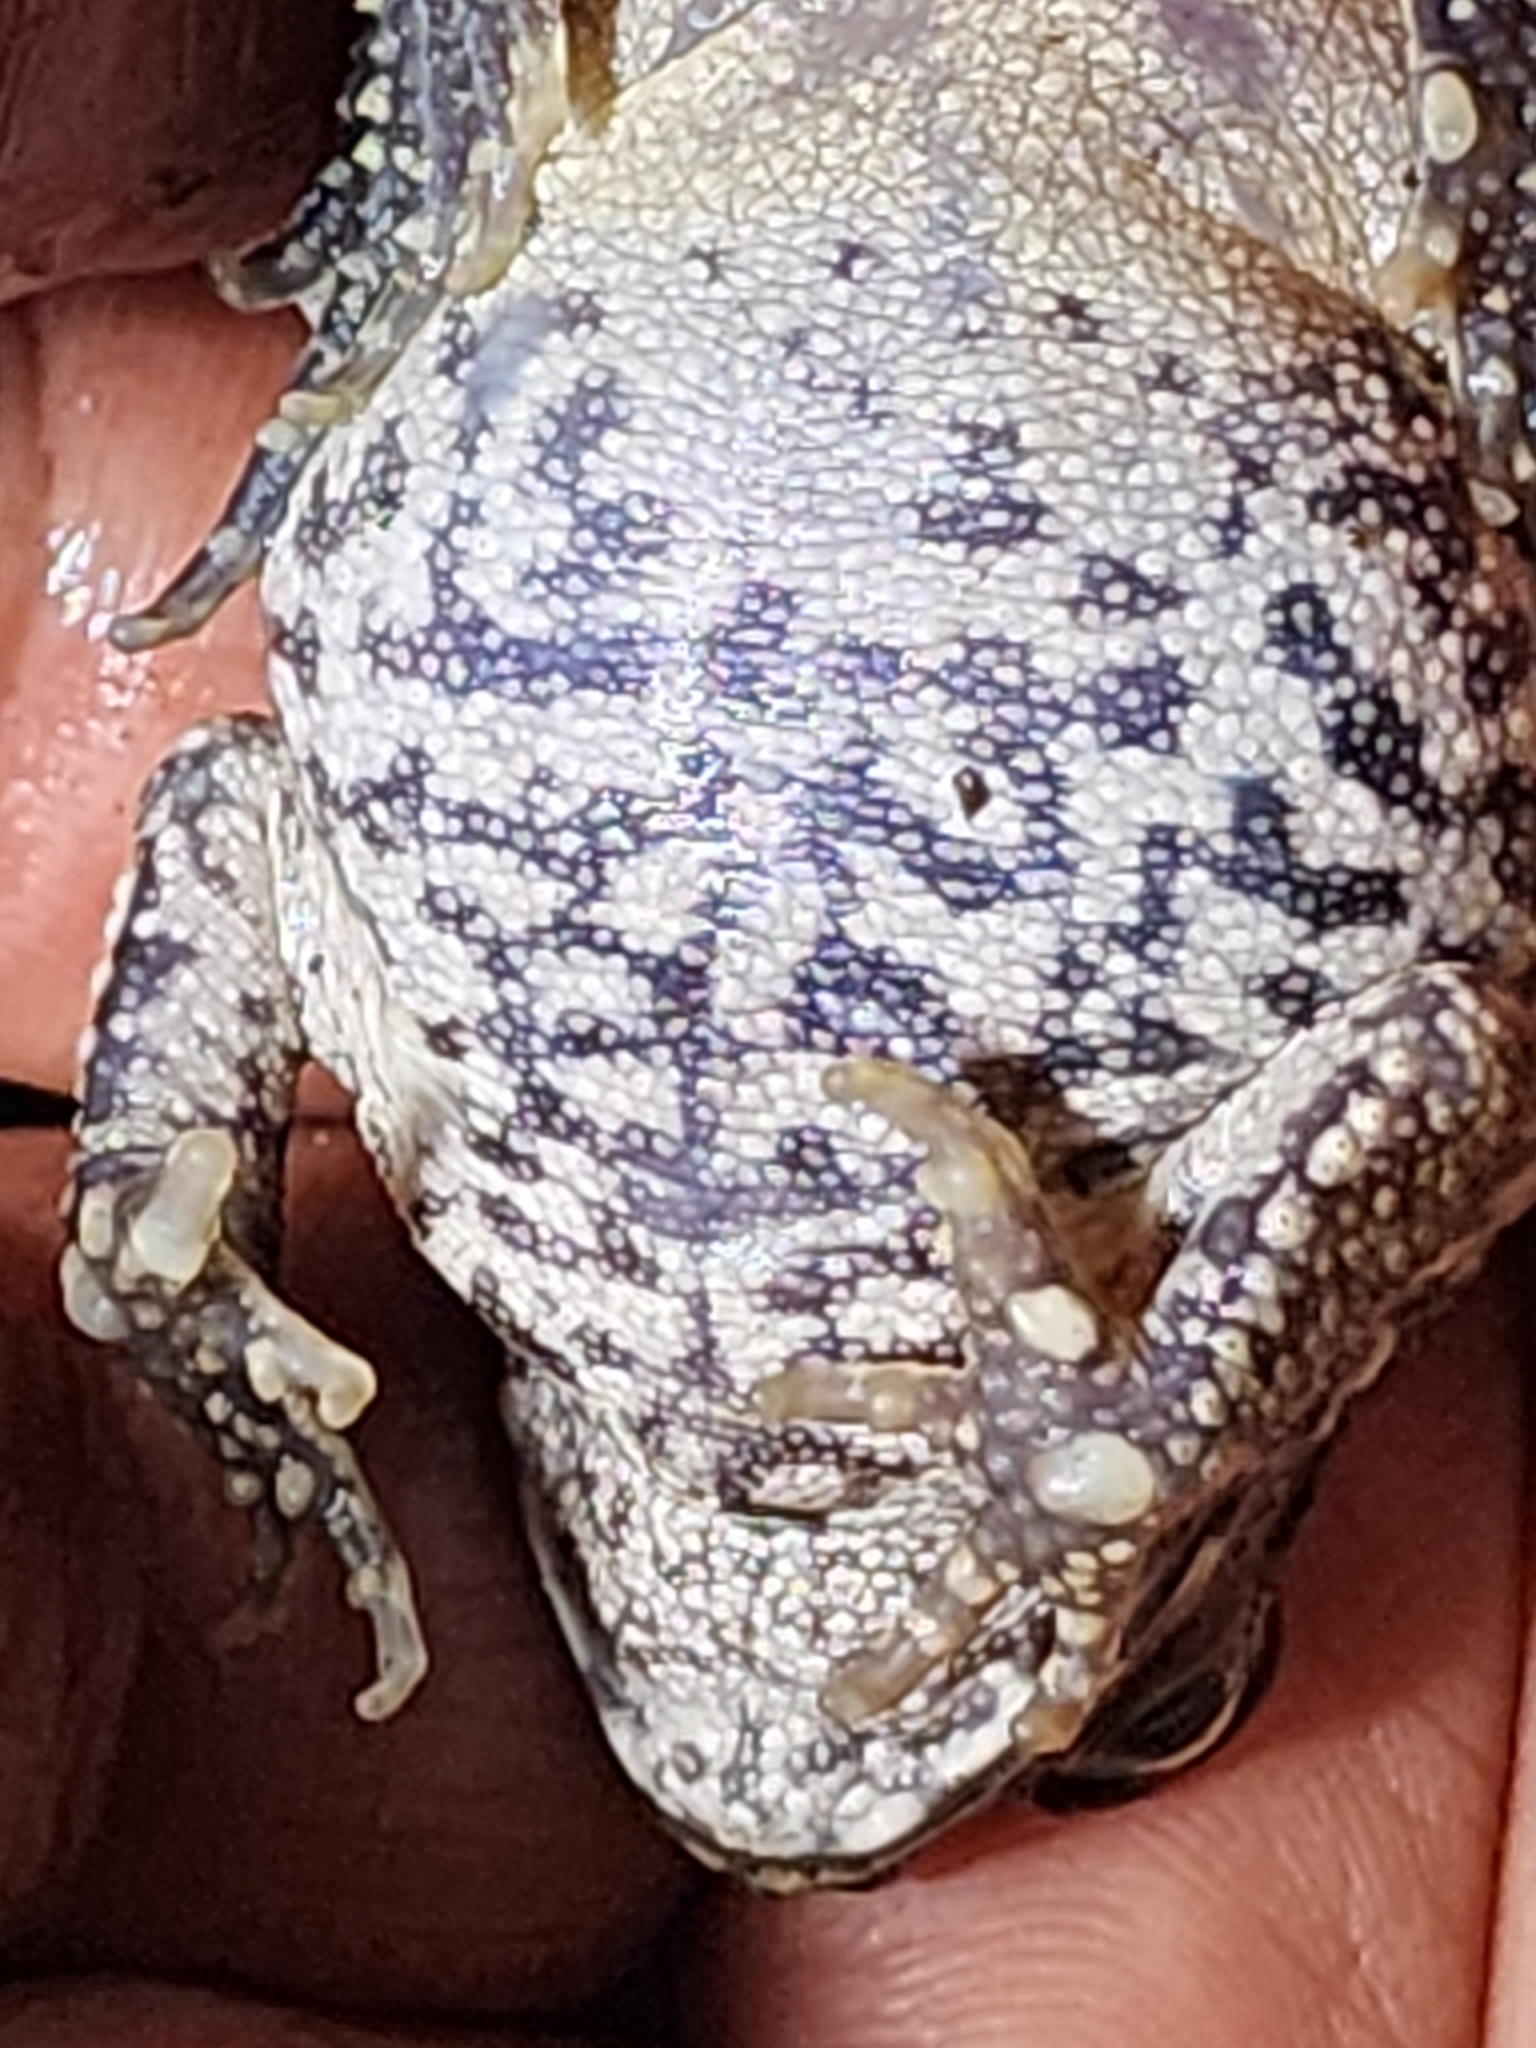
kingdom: Animalia
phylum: Chordata
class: Amphibia
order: Anura
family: Bufonidae
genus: Rhinella
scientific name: Rhinella marina
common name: Cane toad
